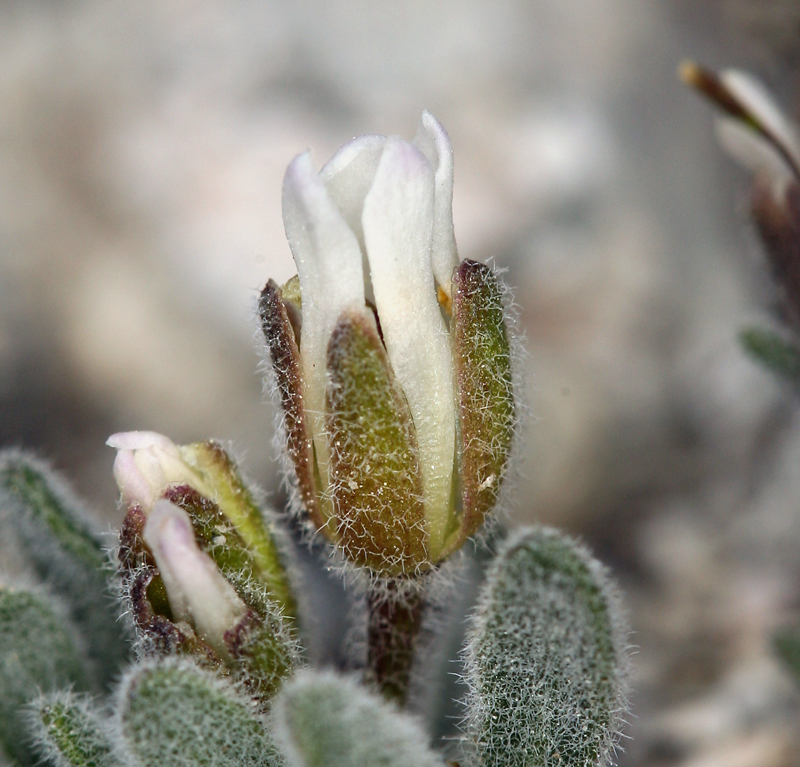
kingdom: Plantae
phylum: Tracheophyta
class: Magnoliopsida
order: Brassicales
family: Brassicaceae
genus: Anelsonia
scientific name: Anelsonia eurycarpa
